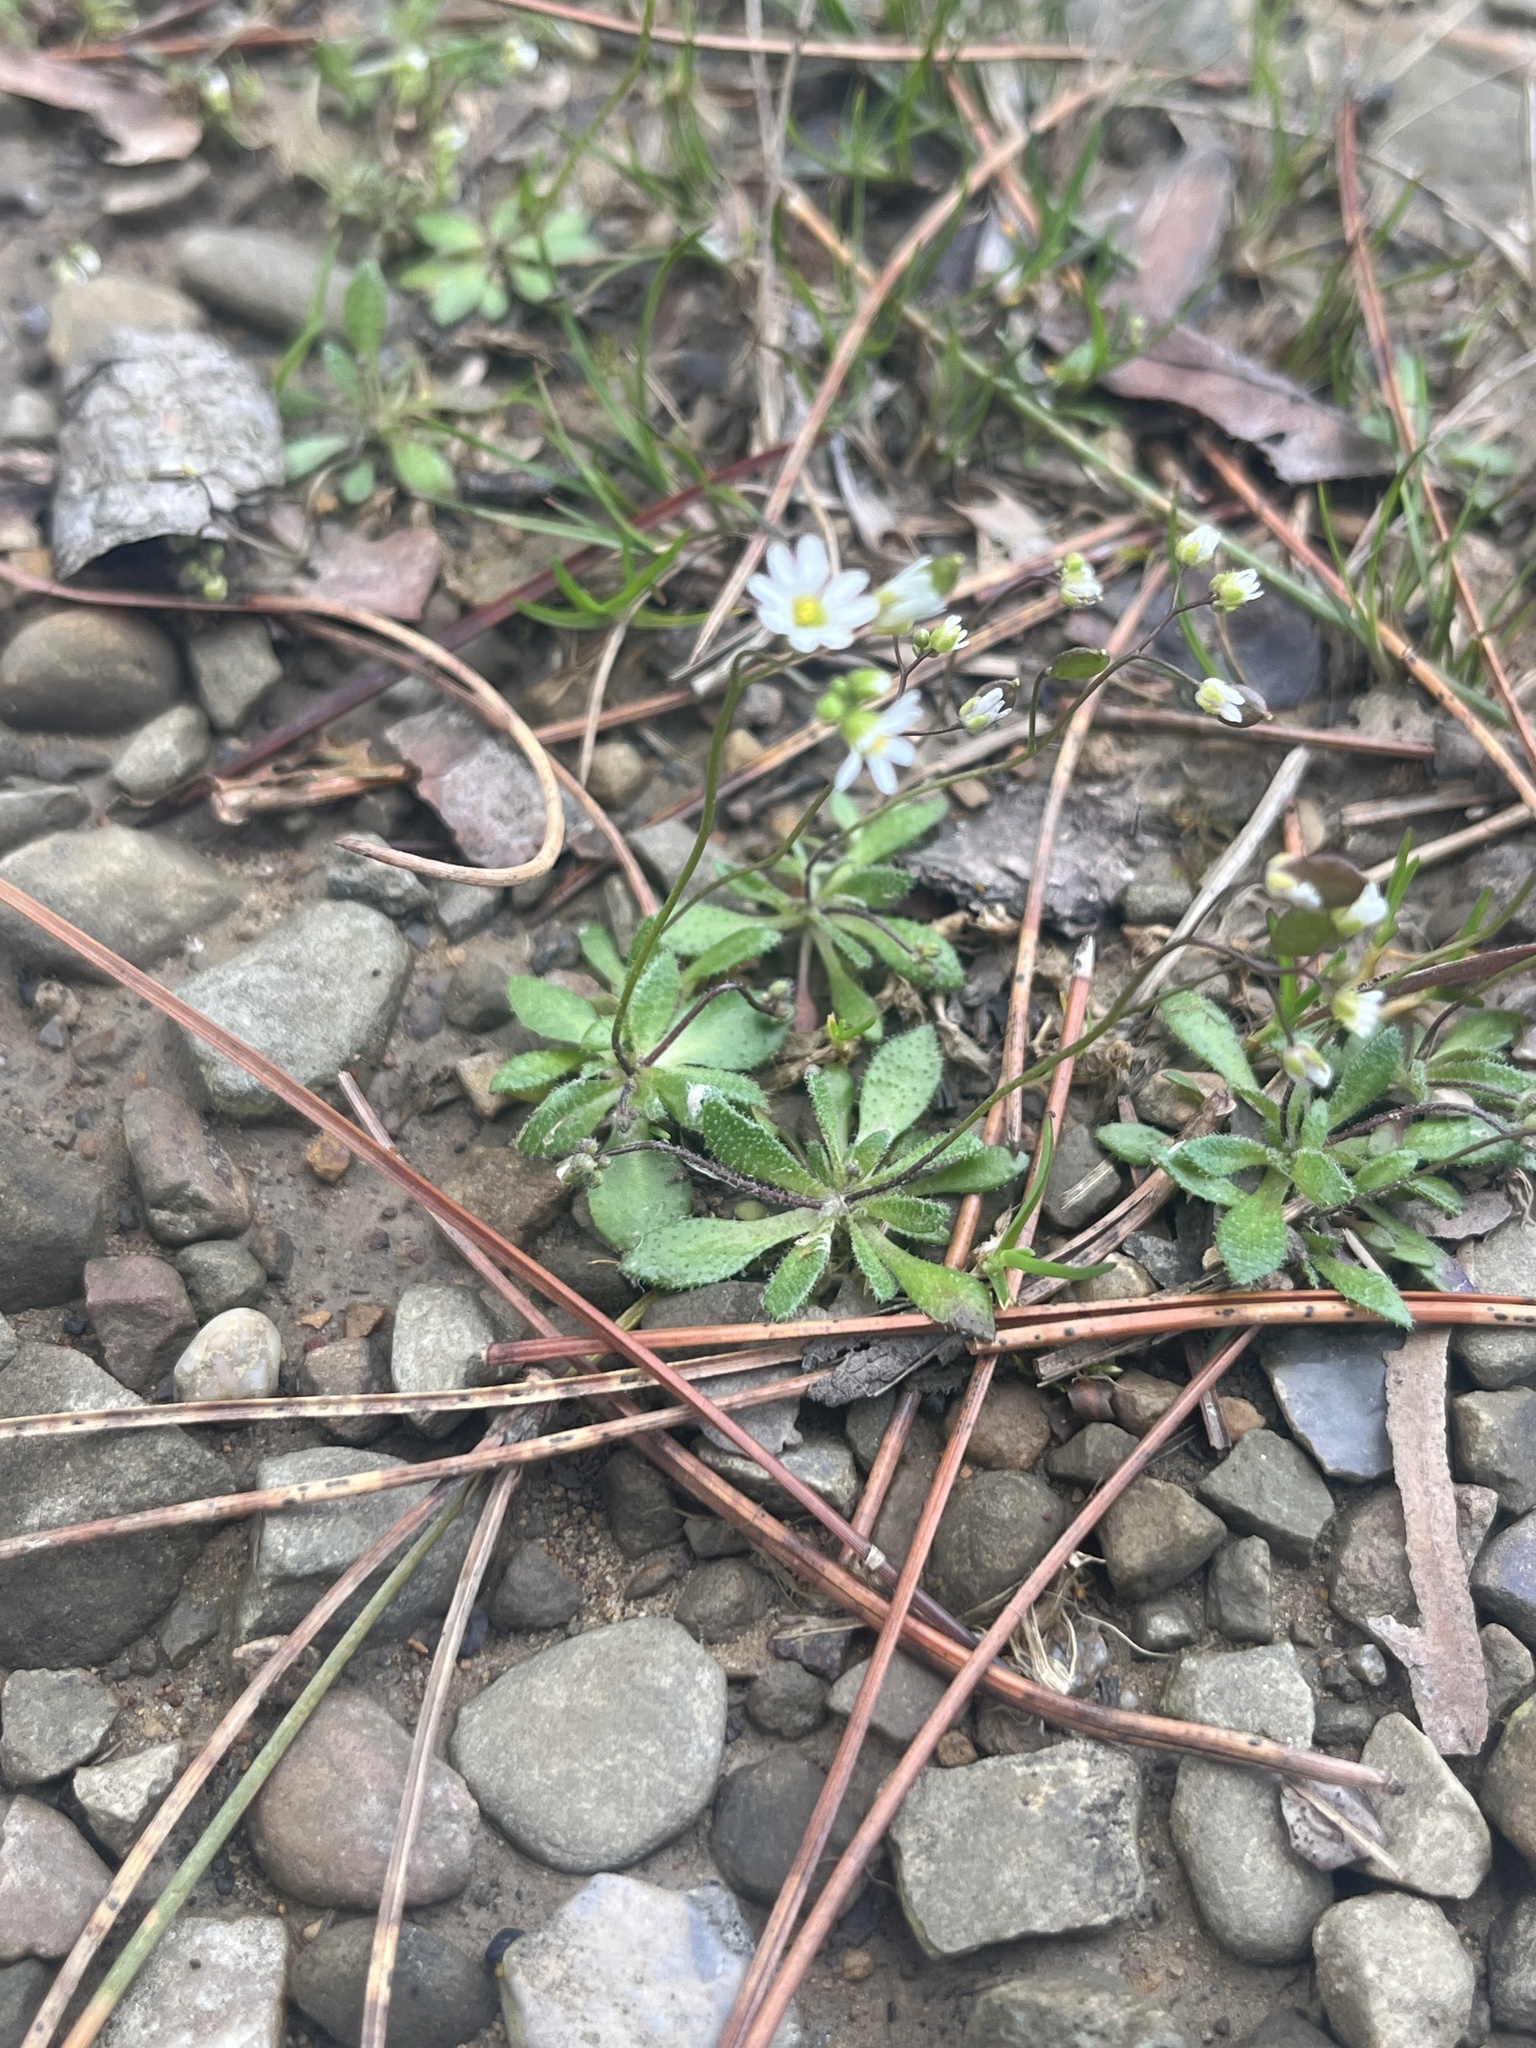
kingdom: Plantae
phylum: Tracheophyta
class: Magnoliopsida
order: Brassicales
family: Brassicaceae
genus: Draba
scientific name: Draba verna
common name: Spring draba
